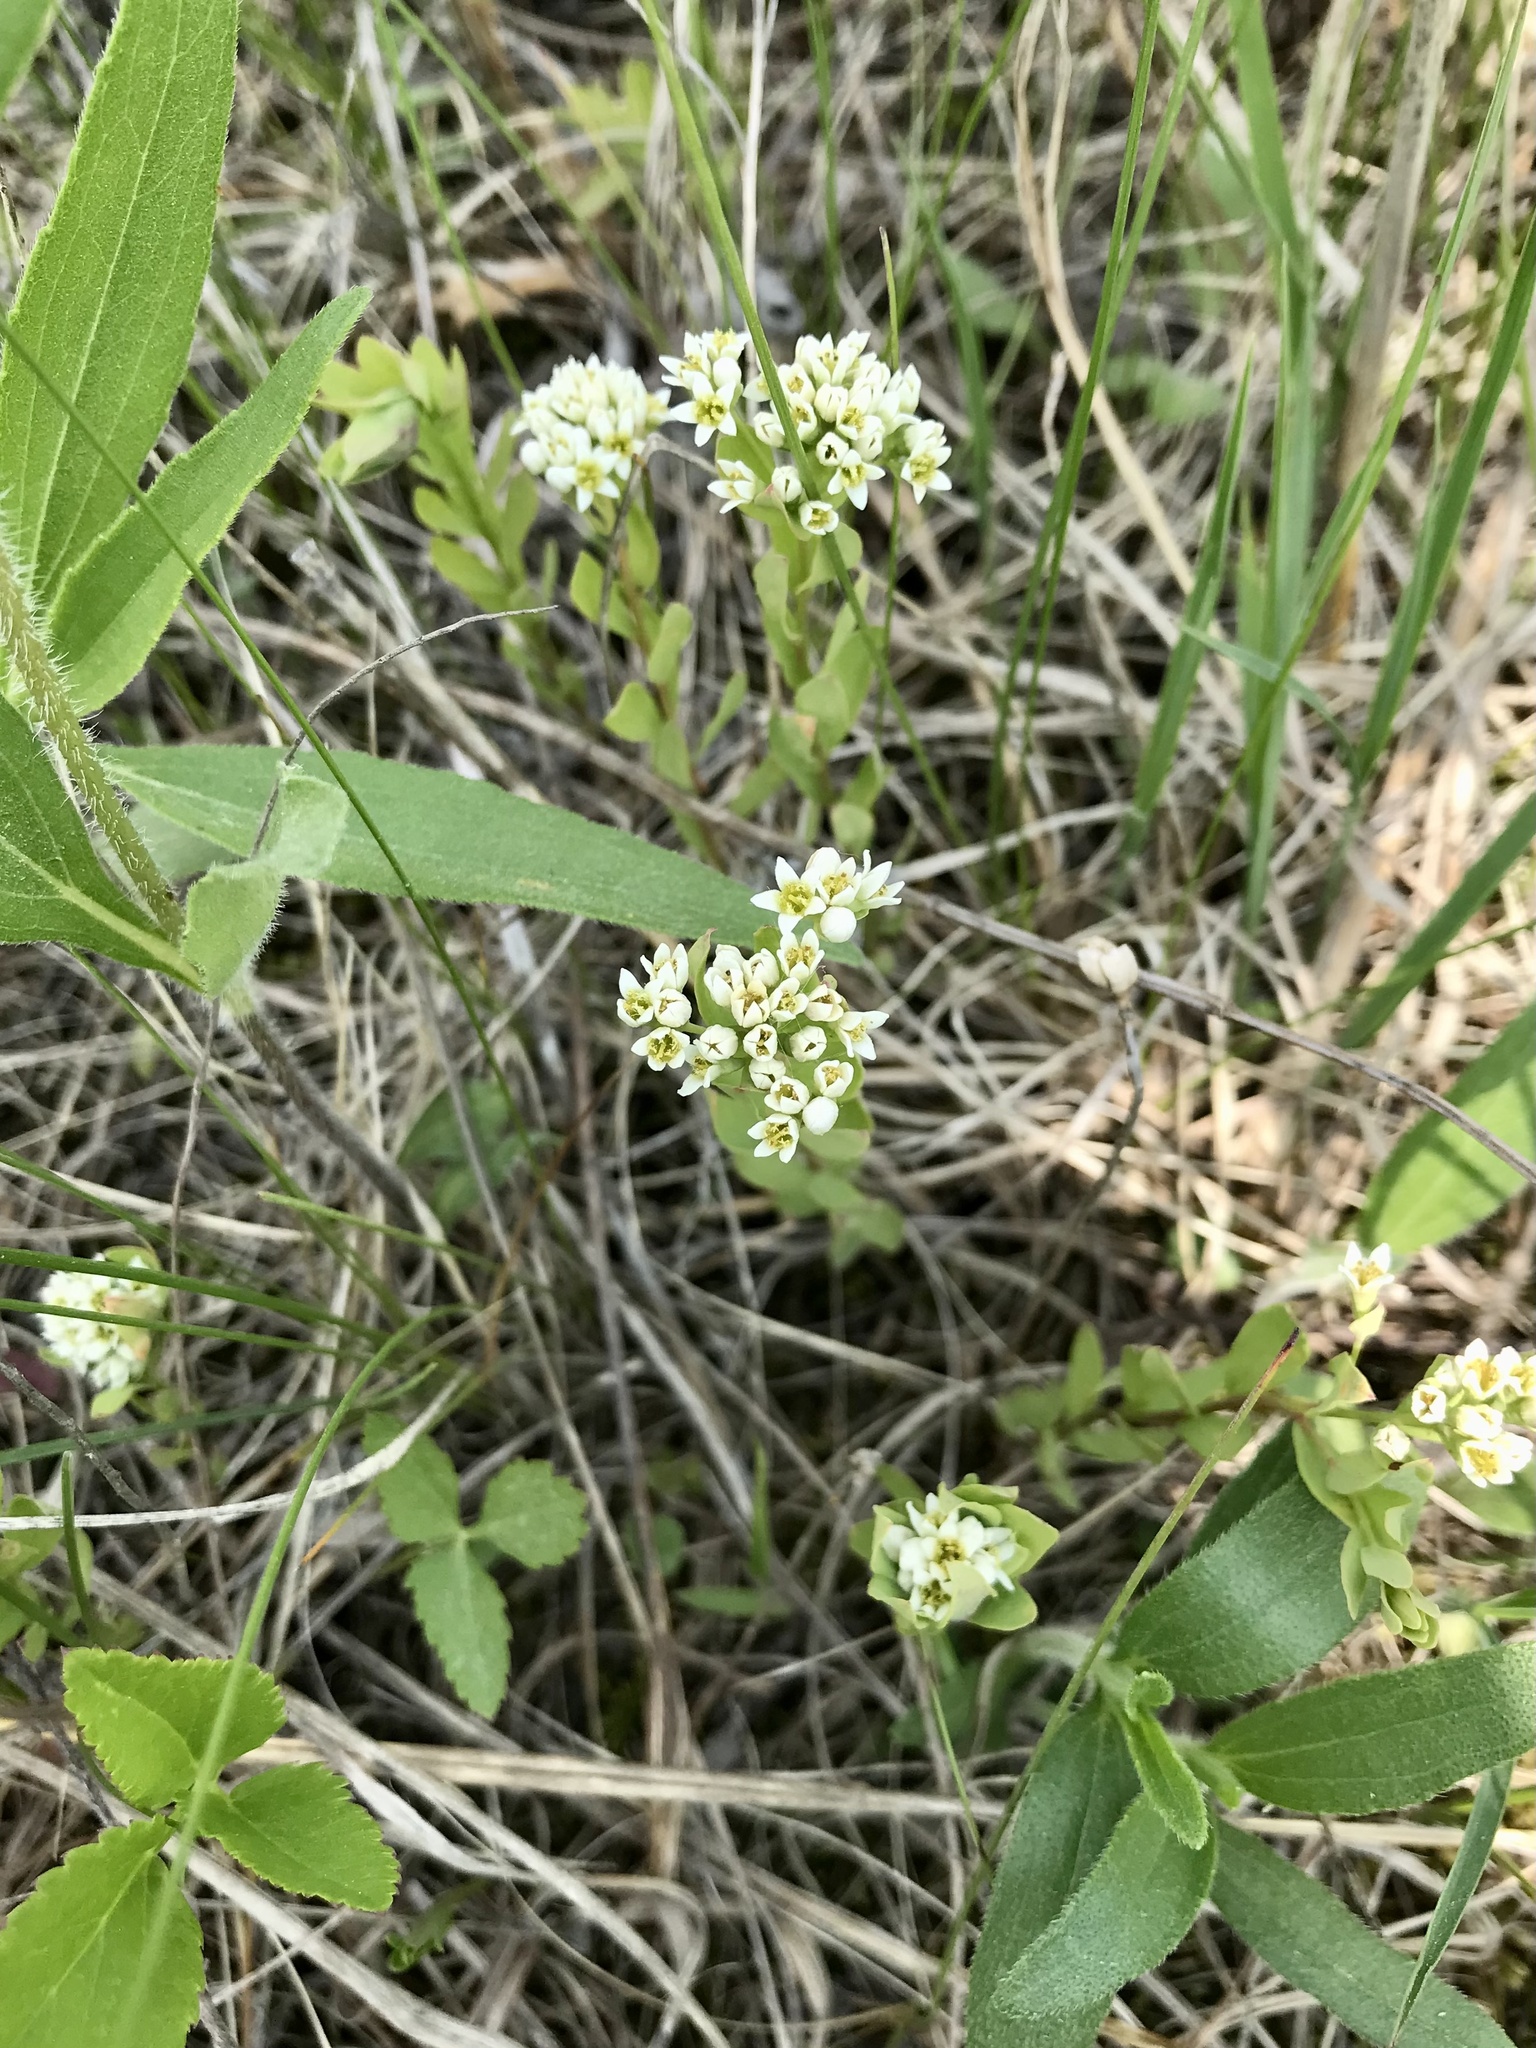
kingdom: Plantae
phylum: Tracheophyta
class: Magnoliopsida
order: Santalales
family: Comandraceae
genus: Comandra
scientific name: Comandra umbellata
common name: Bastard toadflax
